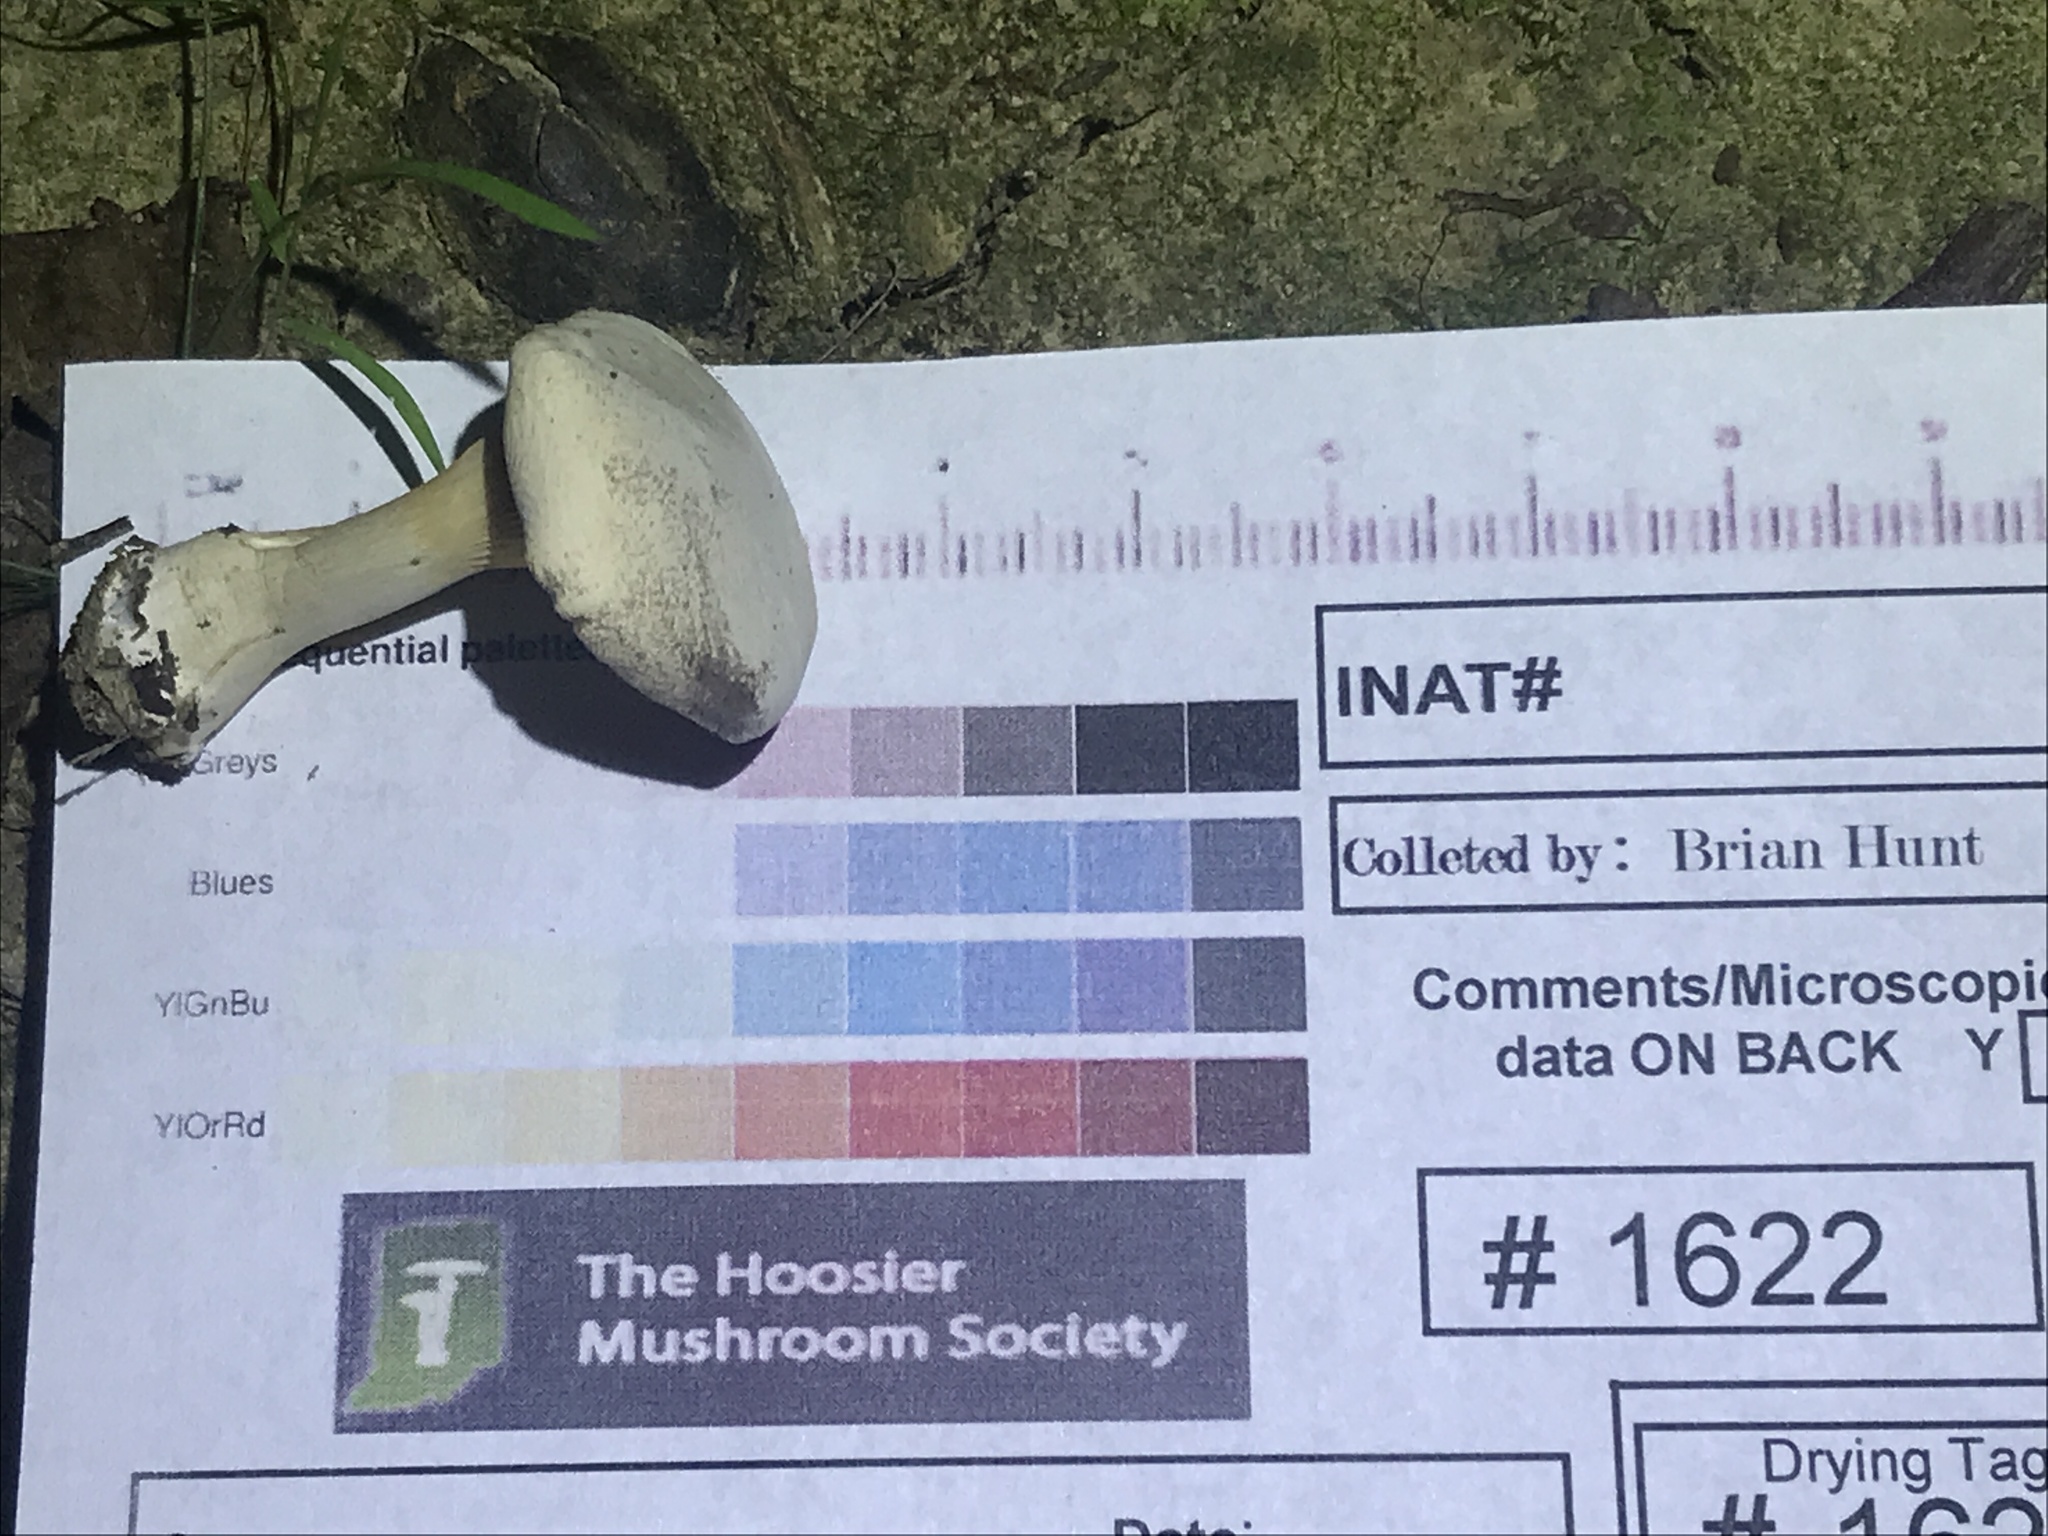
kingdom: Fungi
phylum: Basidiomycota
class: Agaricomycetes
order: Agaricales
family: Entolomataceae
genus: Clitopilus
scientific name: Clitopilus prunulus
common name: The miller
